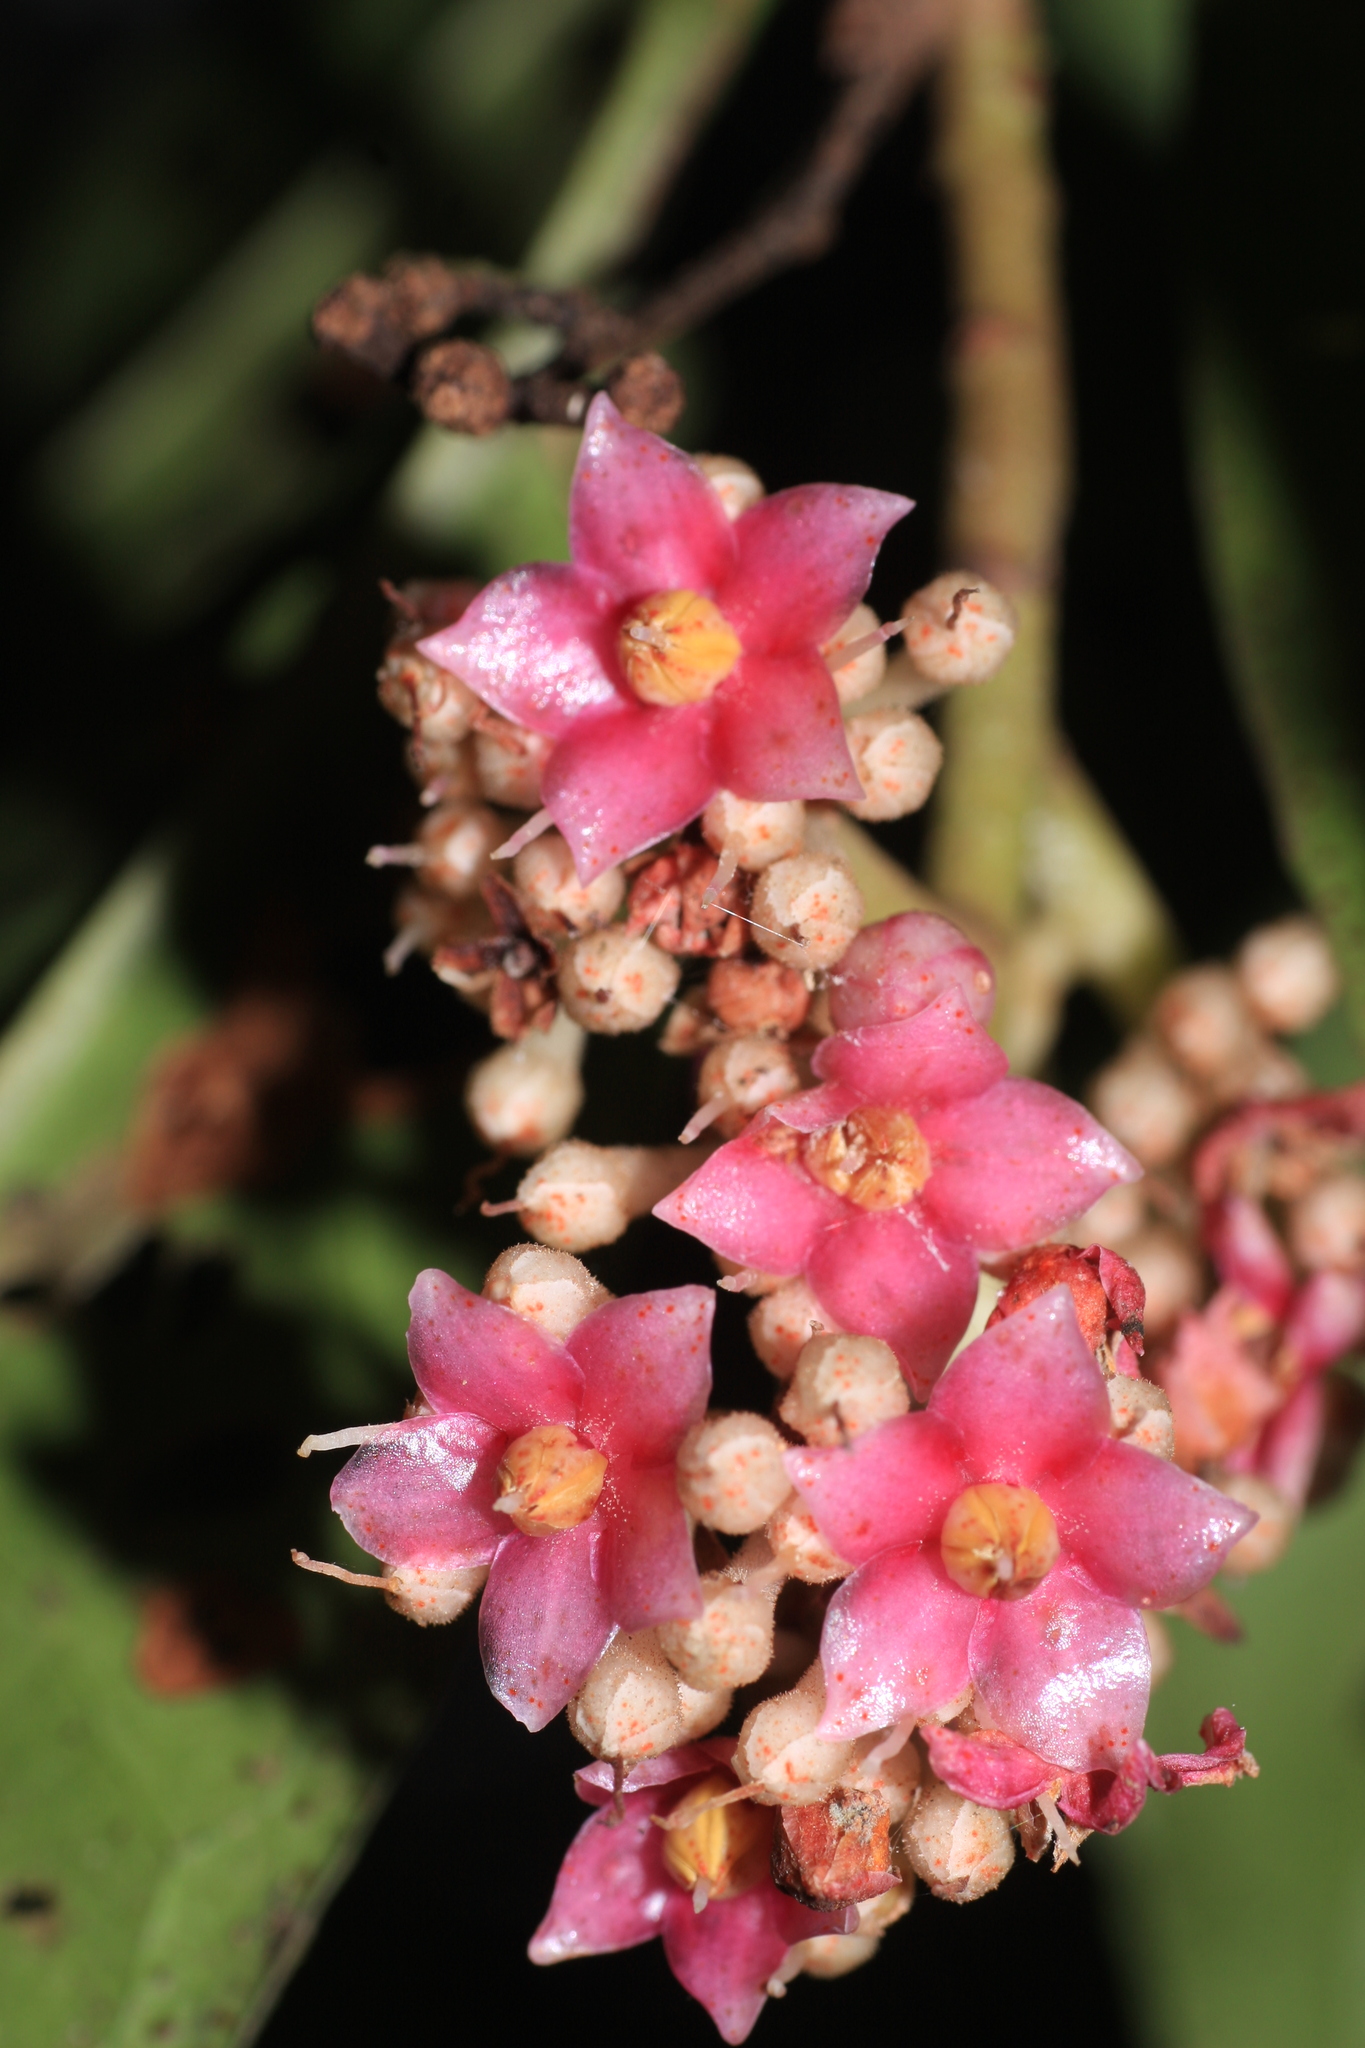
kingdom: Plantae
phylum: Tracheophyta
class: Magnoliopsida
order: Ericales
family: Primulaceae
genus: Ardisia
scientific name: Ardisia pauciflora
